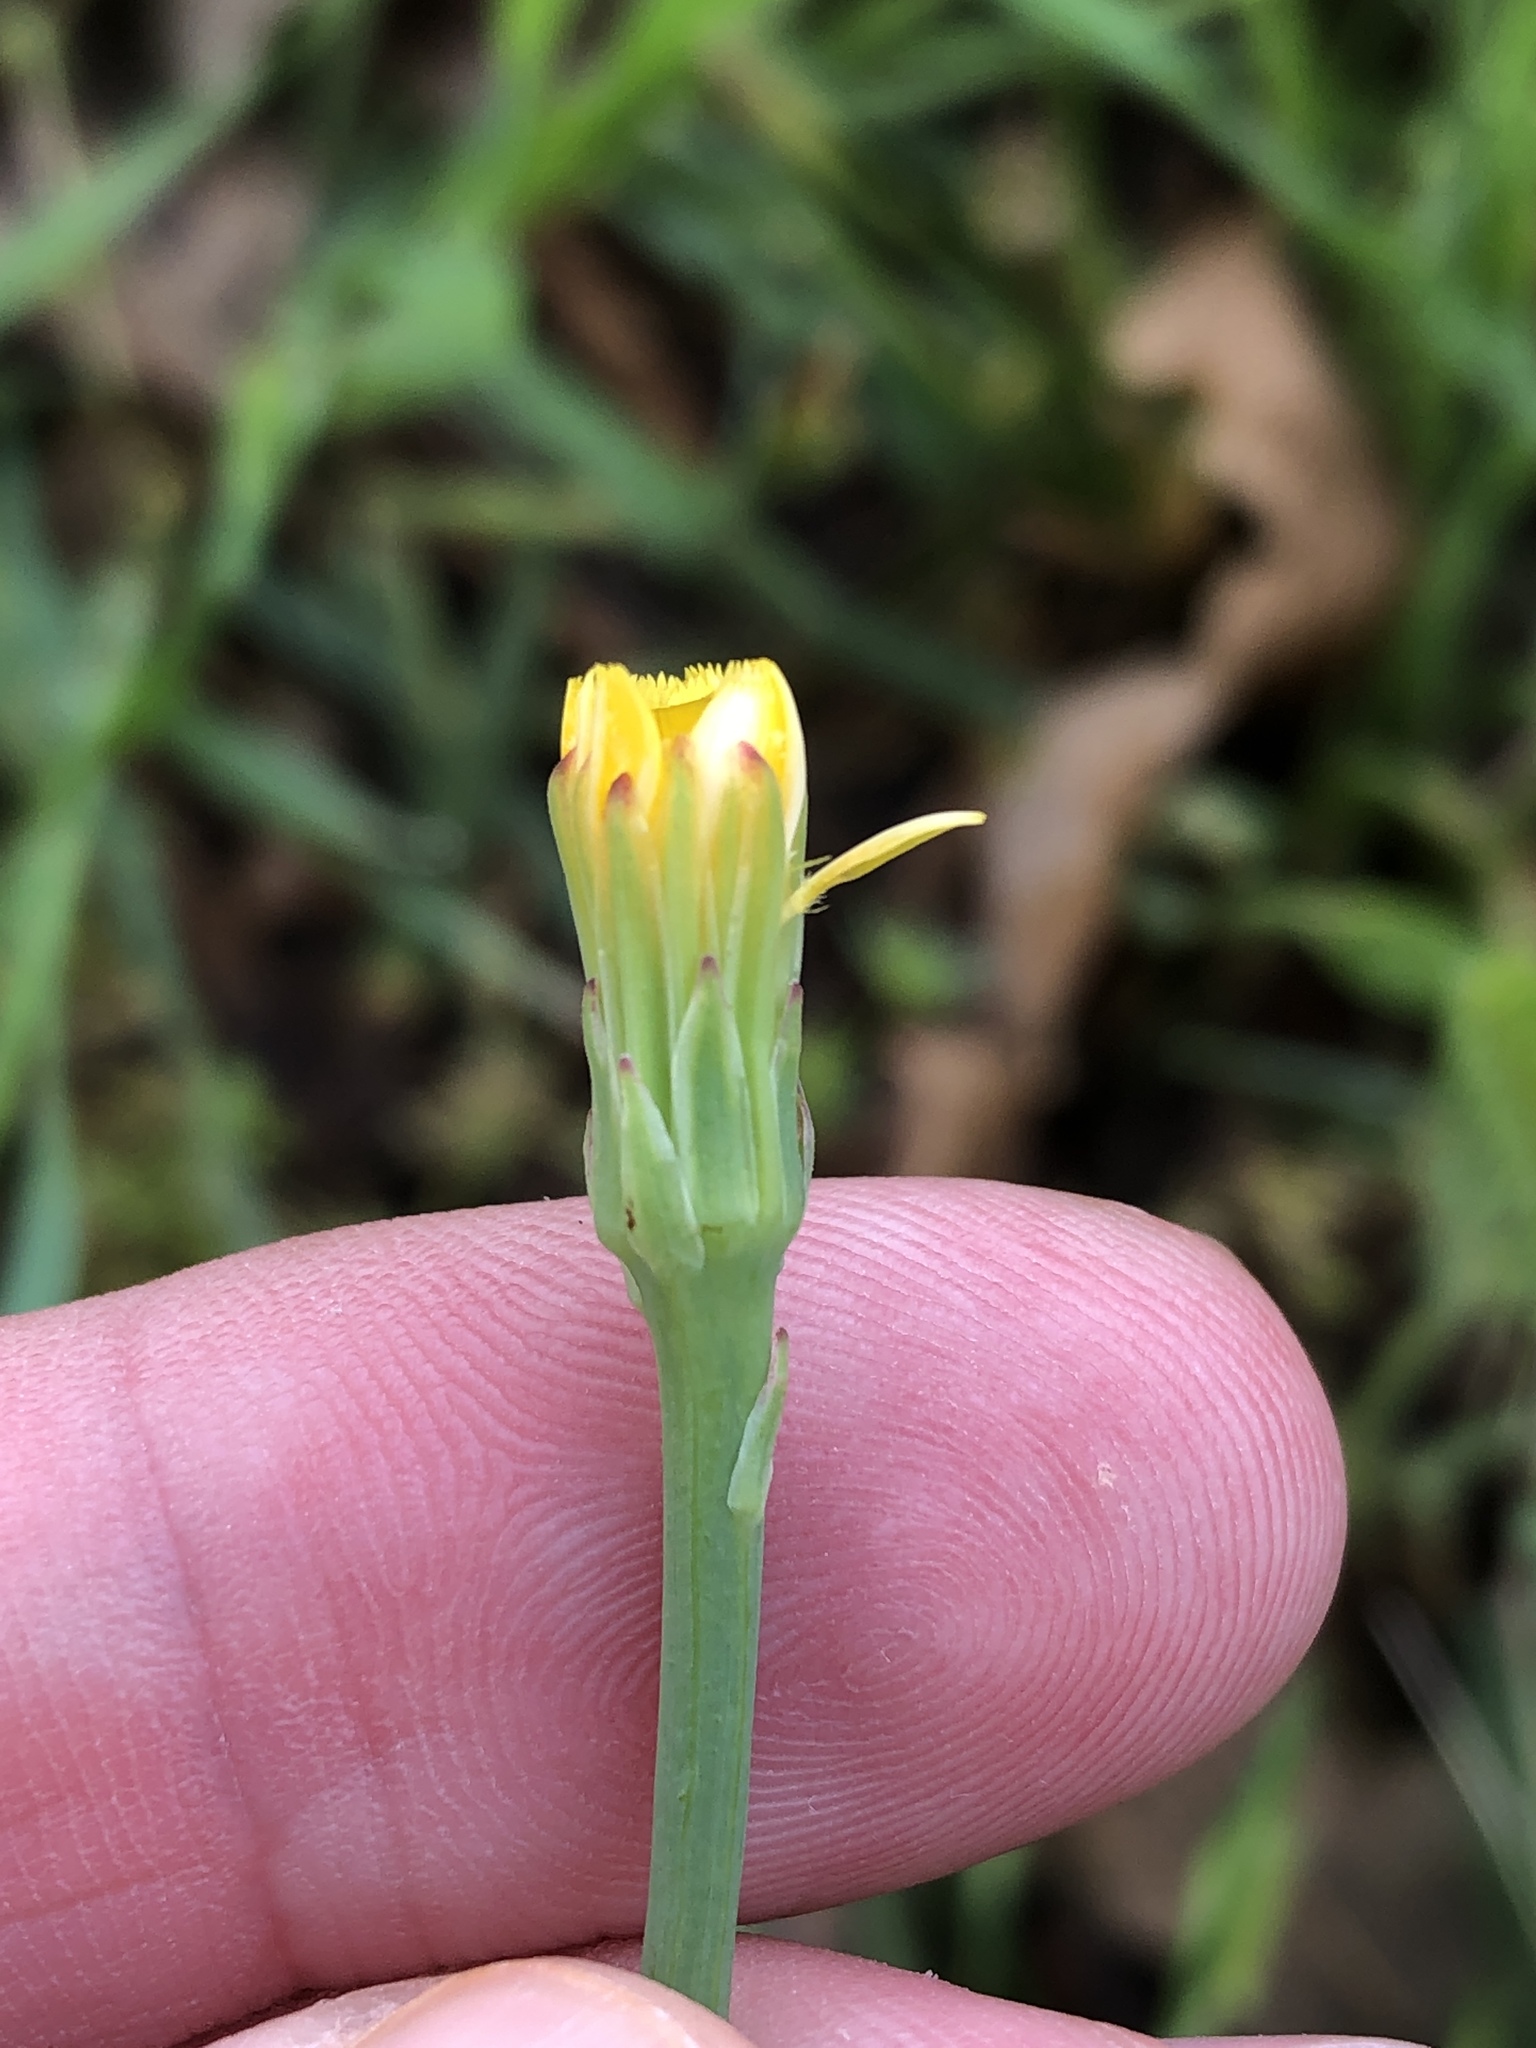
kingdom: Plantae
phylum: Tracheophyta
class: Magnoliopsida
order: Asterales
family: Asteraceae
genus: Hypochaeris
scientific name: Hypochaeris glabra
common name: Smooth catsear
